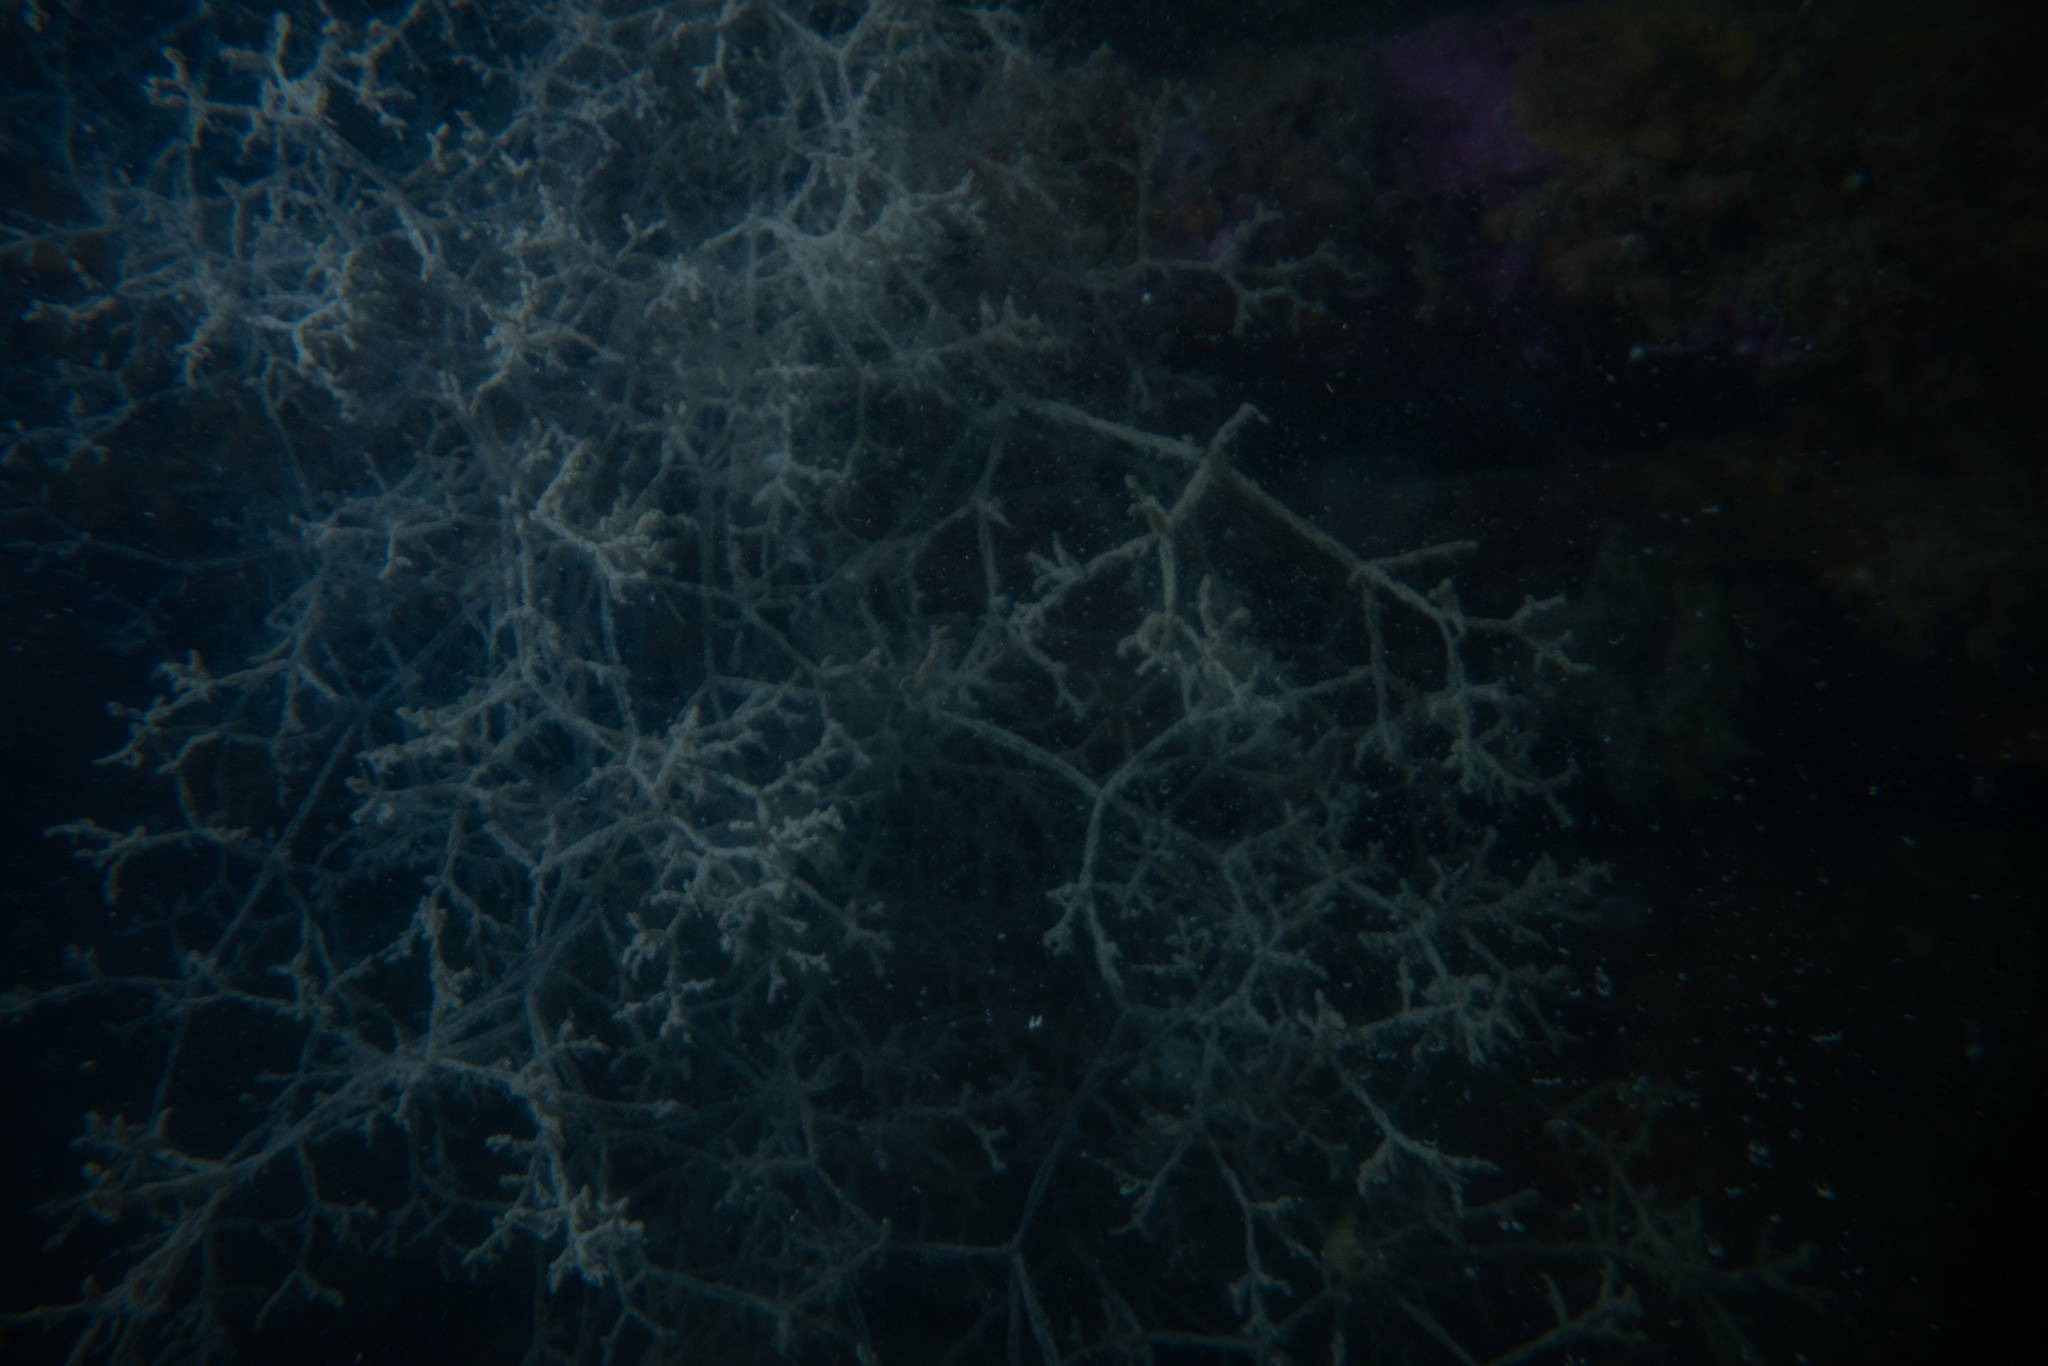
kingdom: Animalia
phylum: Bryozoa
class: Gymnolaemata
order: Ctenostomatida
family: Vesiculariidae
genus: Amathia
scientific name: Amathia verticillata
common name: Whorled zoobotryon
